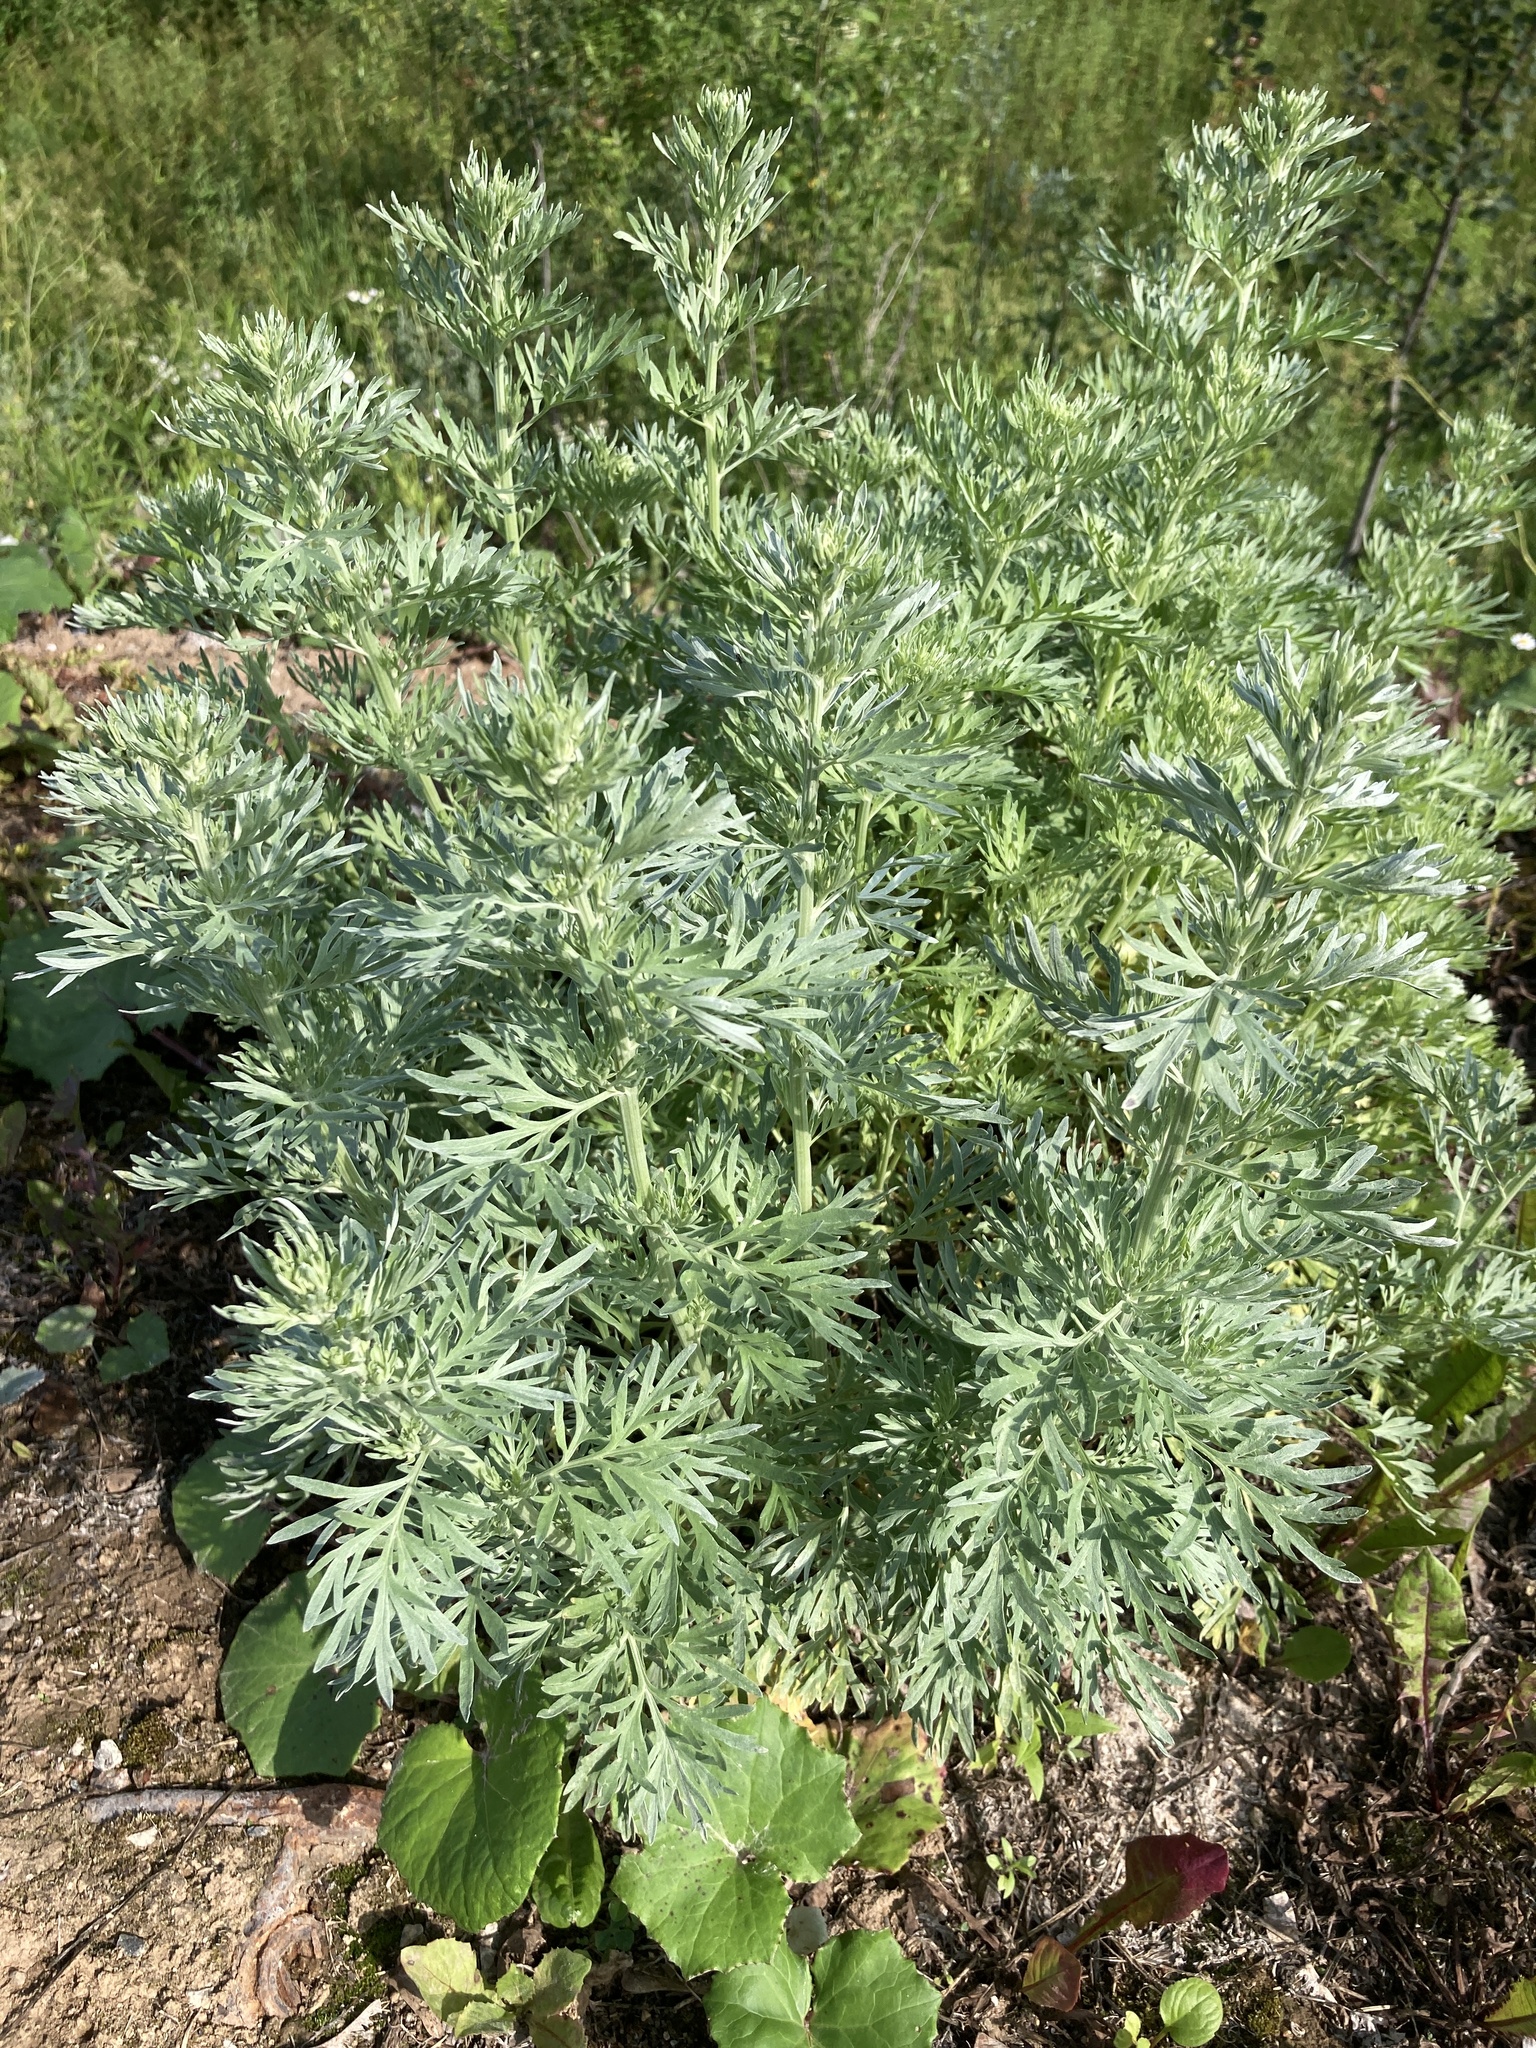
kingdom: Plantae
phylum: Tracheophyta
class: Magnoliopsida
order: Asterales
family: Asteraceae
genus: Artemisia
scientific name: Artemisia absinthium
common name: Wormwood
